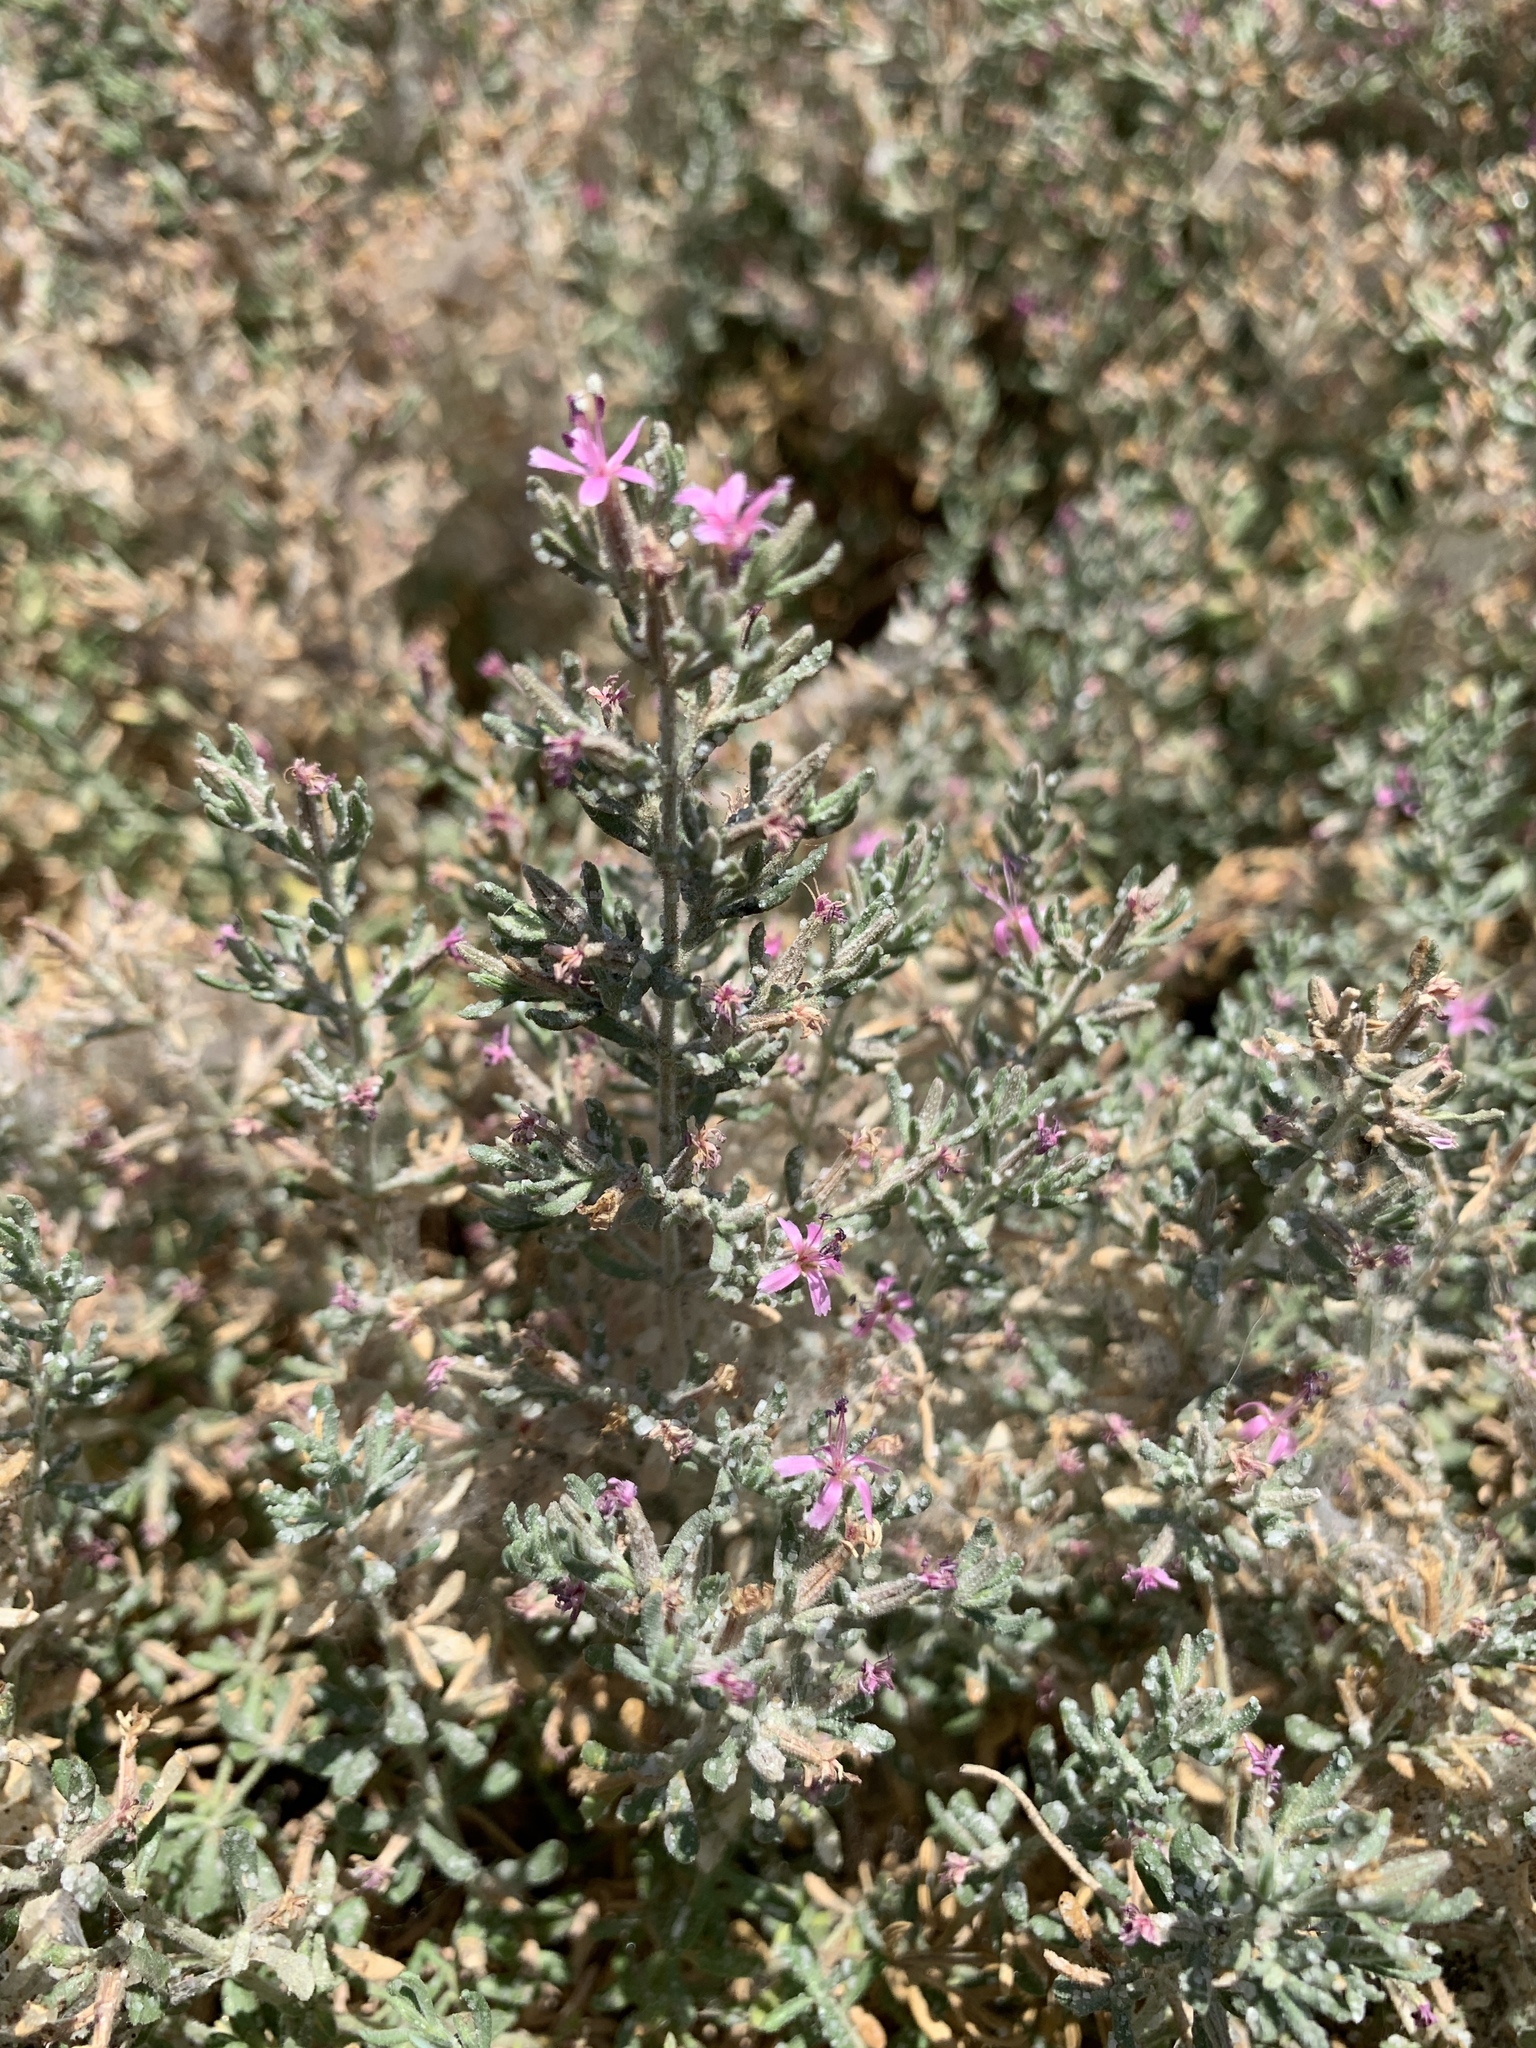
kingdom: Plantae
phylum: Tracheophyta
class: Magnoliopsida
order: Caryophyllales
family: Frankeniaceae
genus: Frankenia
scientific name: Frankenia salina
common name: Alkali seaheath
